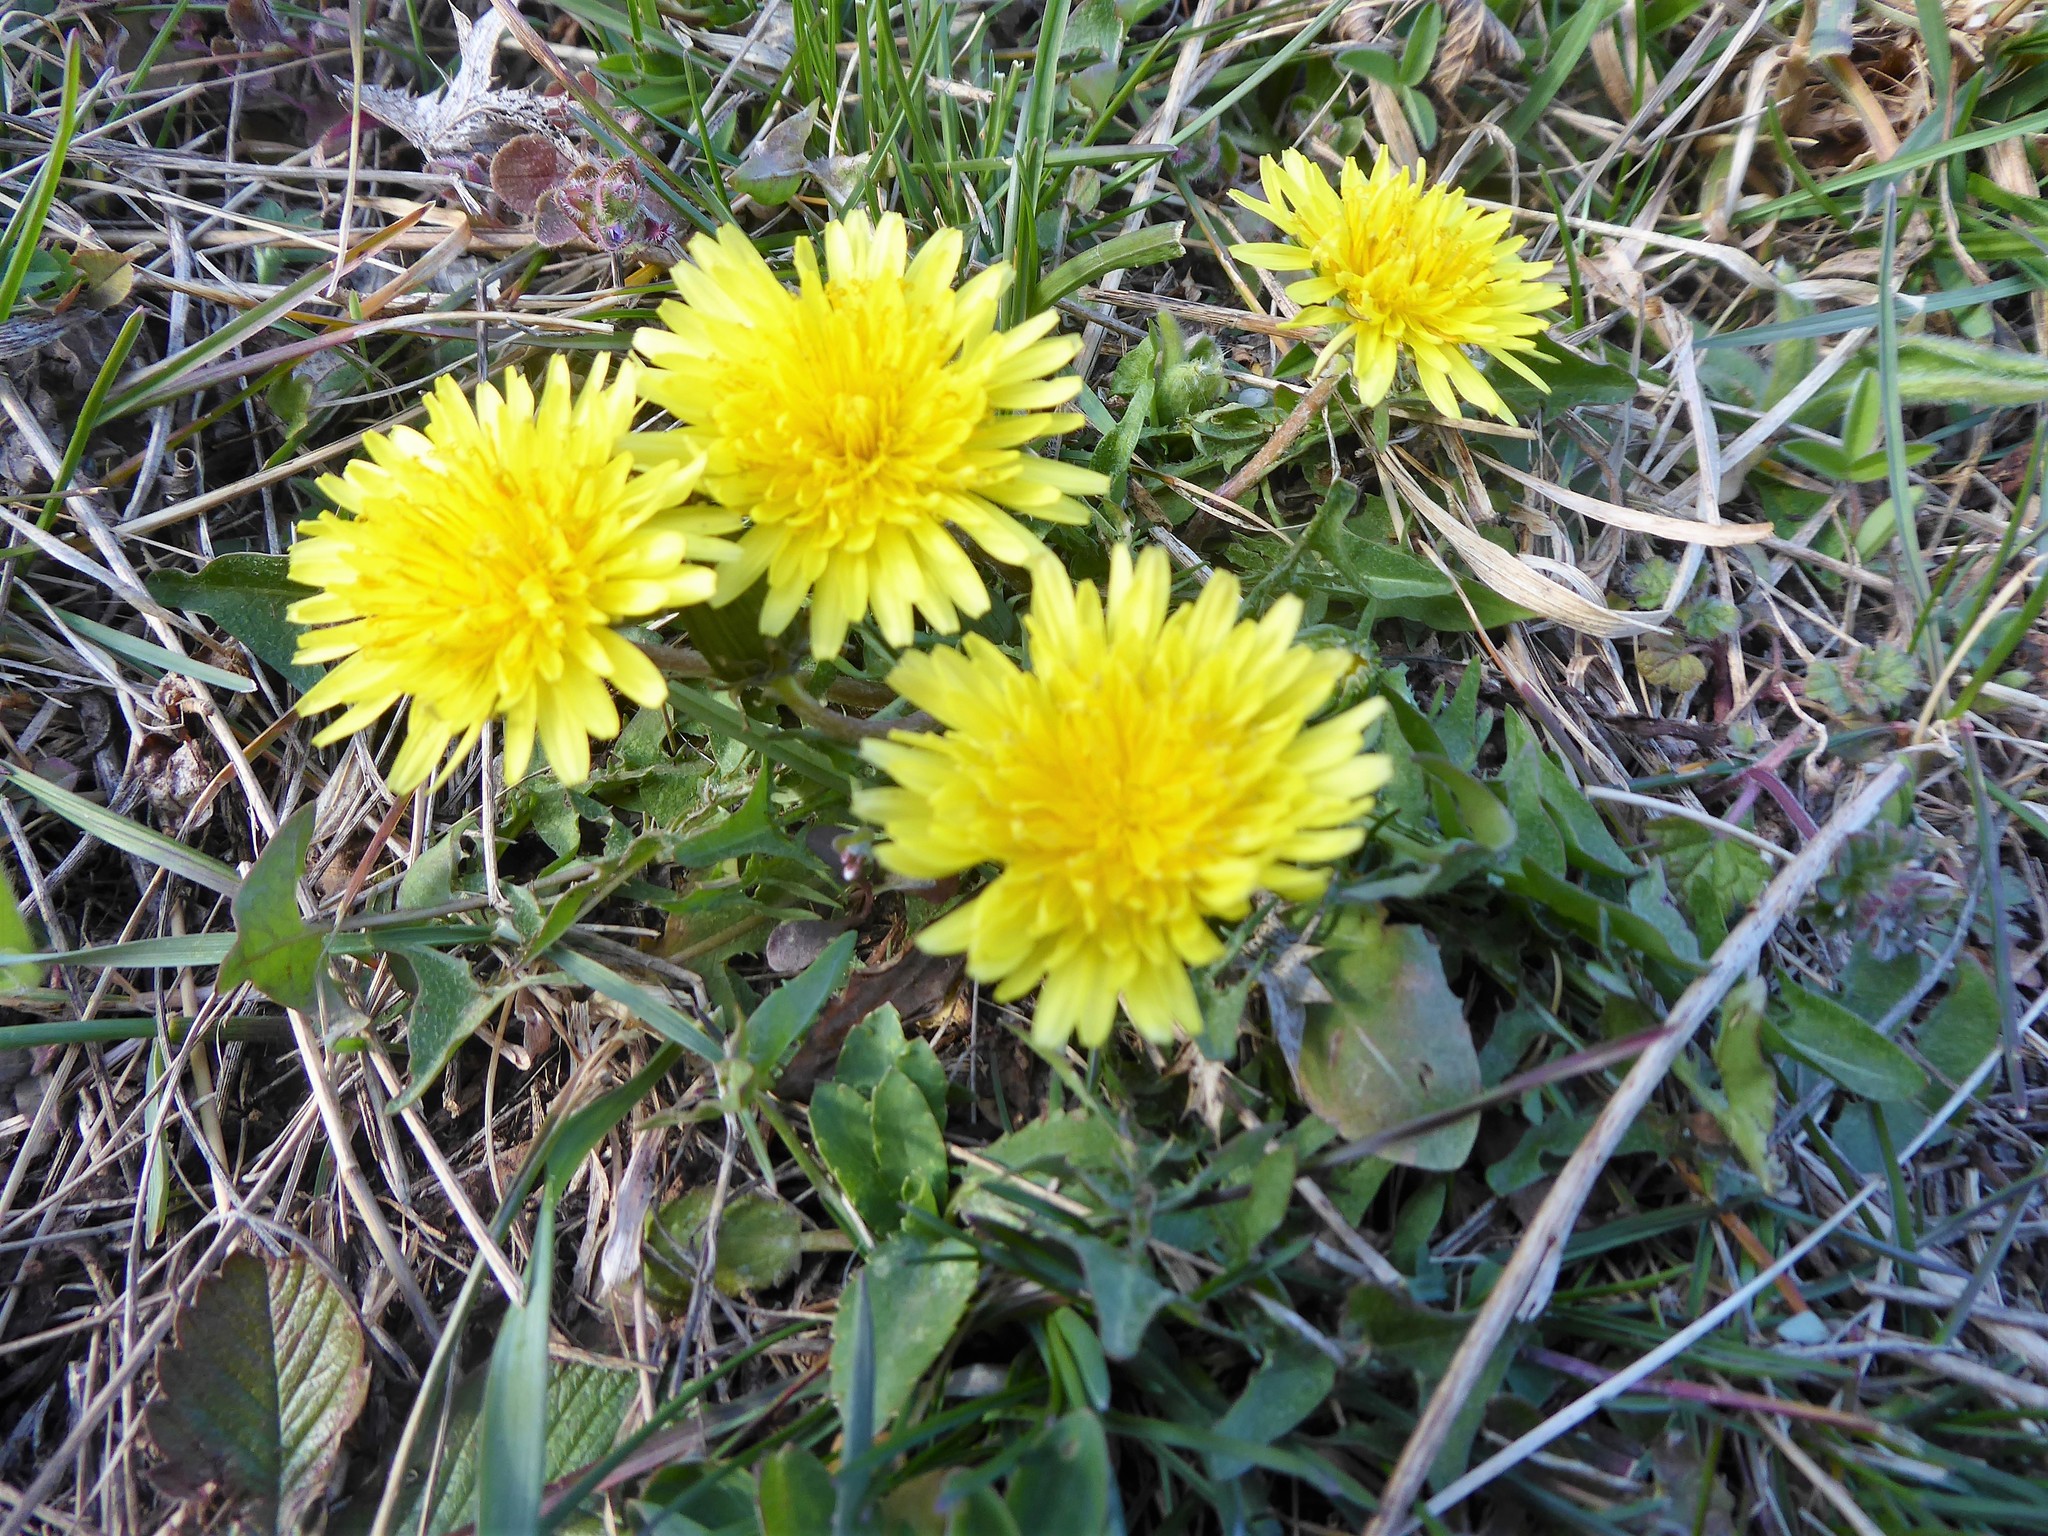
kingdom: Plantae
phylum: Tracheophyta
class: Magnoliopsida
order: Asterales
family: Asteraceae
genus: Taraxacum
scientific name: Taraxacum
